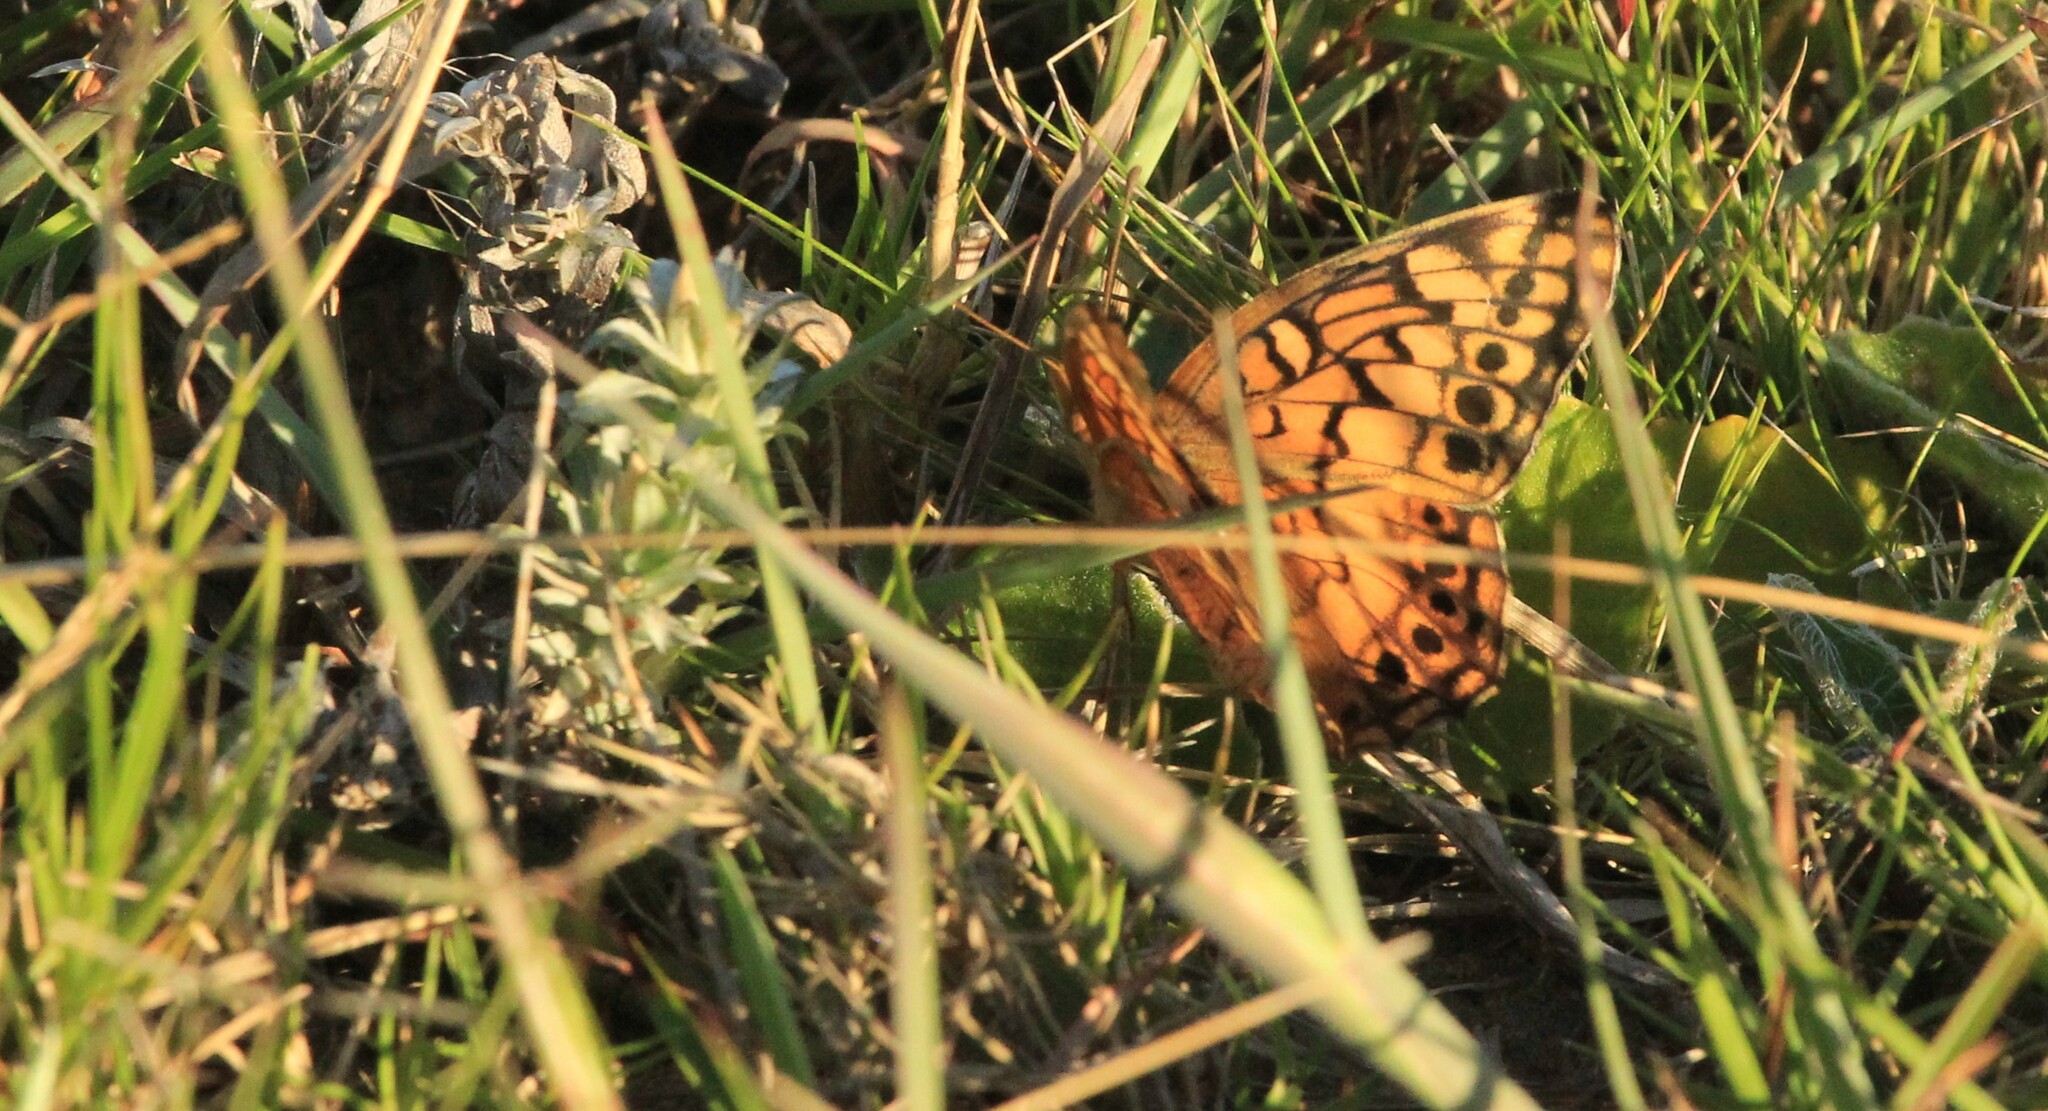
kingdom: Animalia
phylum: Arthropoda
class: Insecta
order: Lepidoptera
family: Nymphalidae
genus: Euptoieta
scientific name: Euptoieta hortensia
